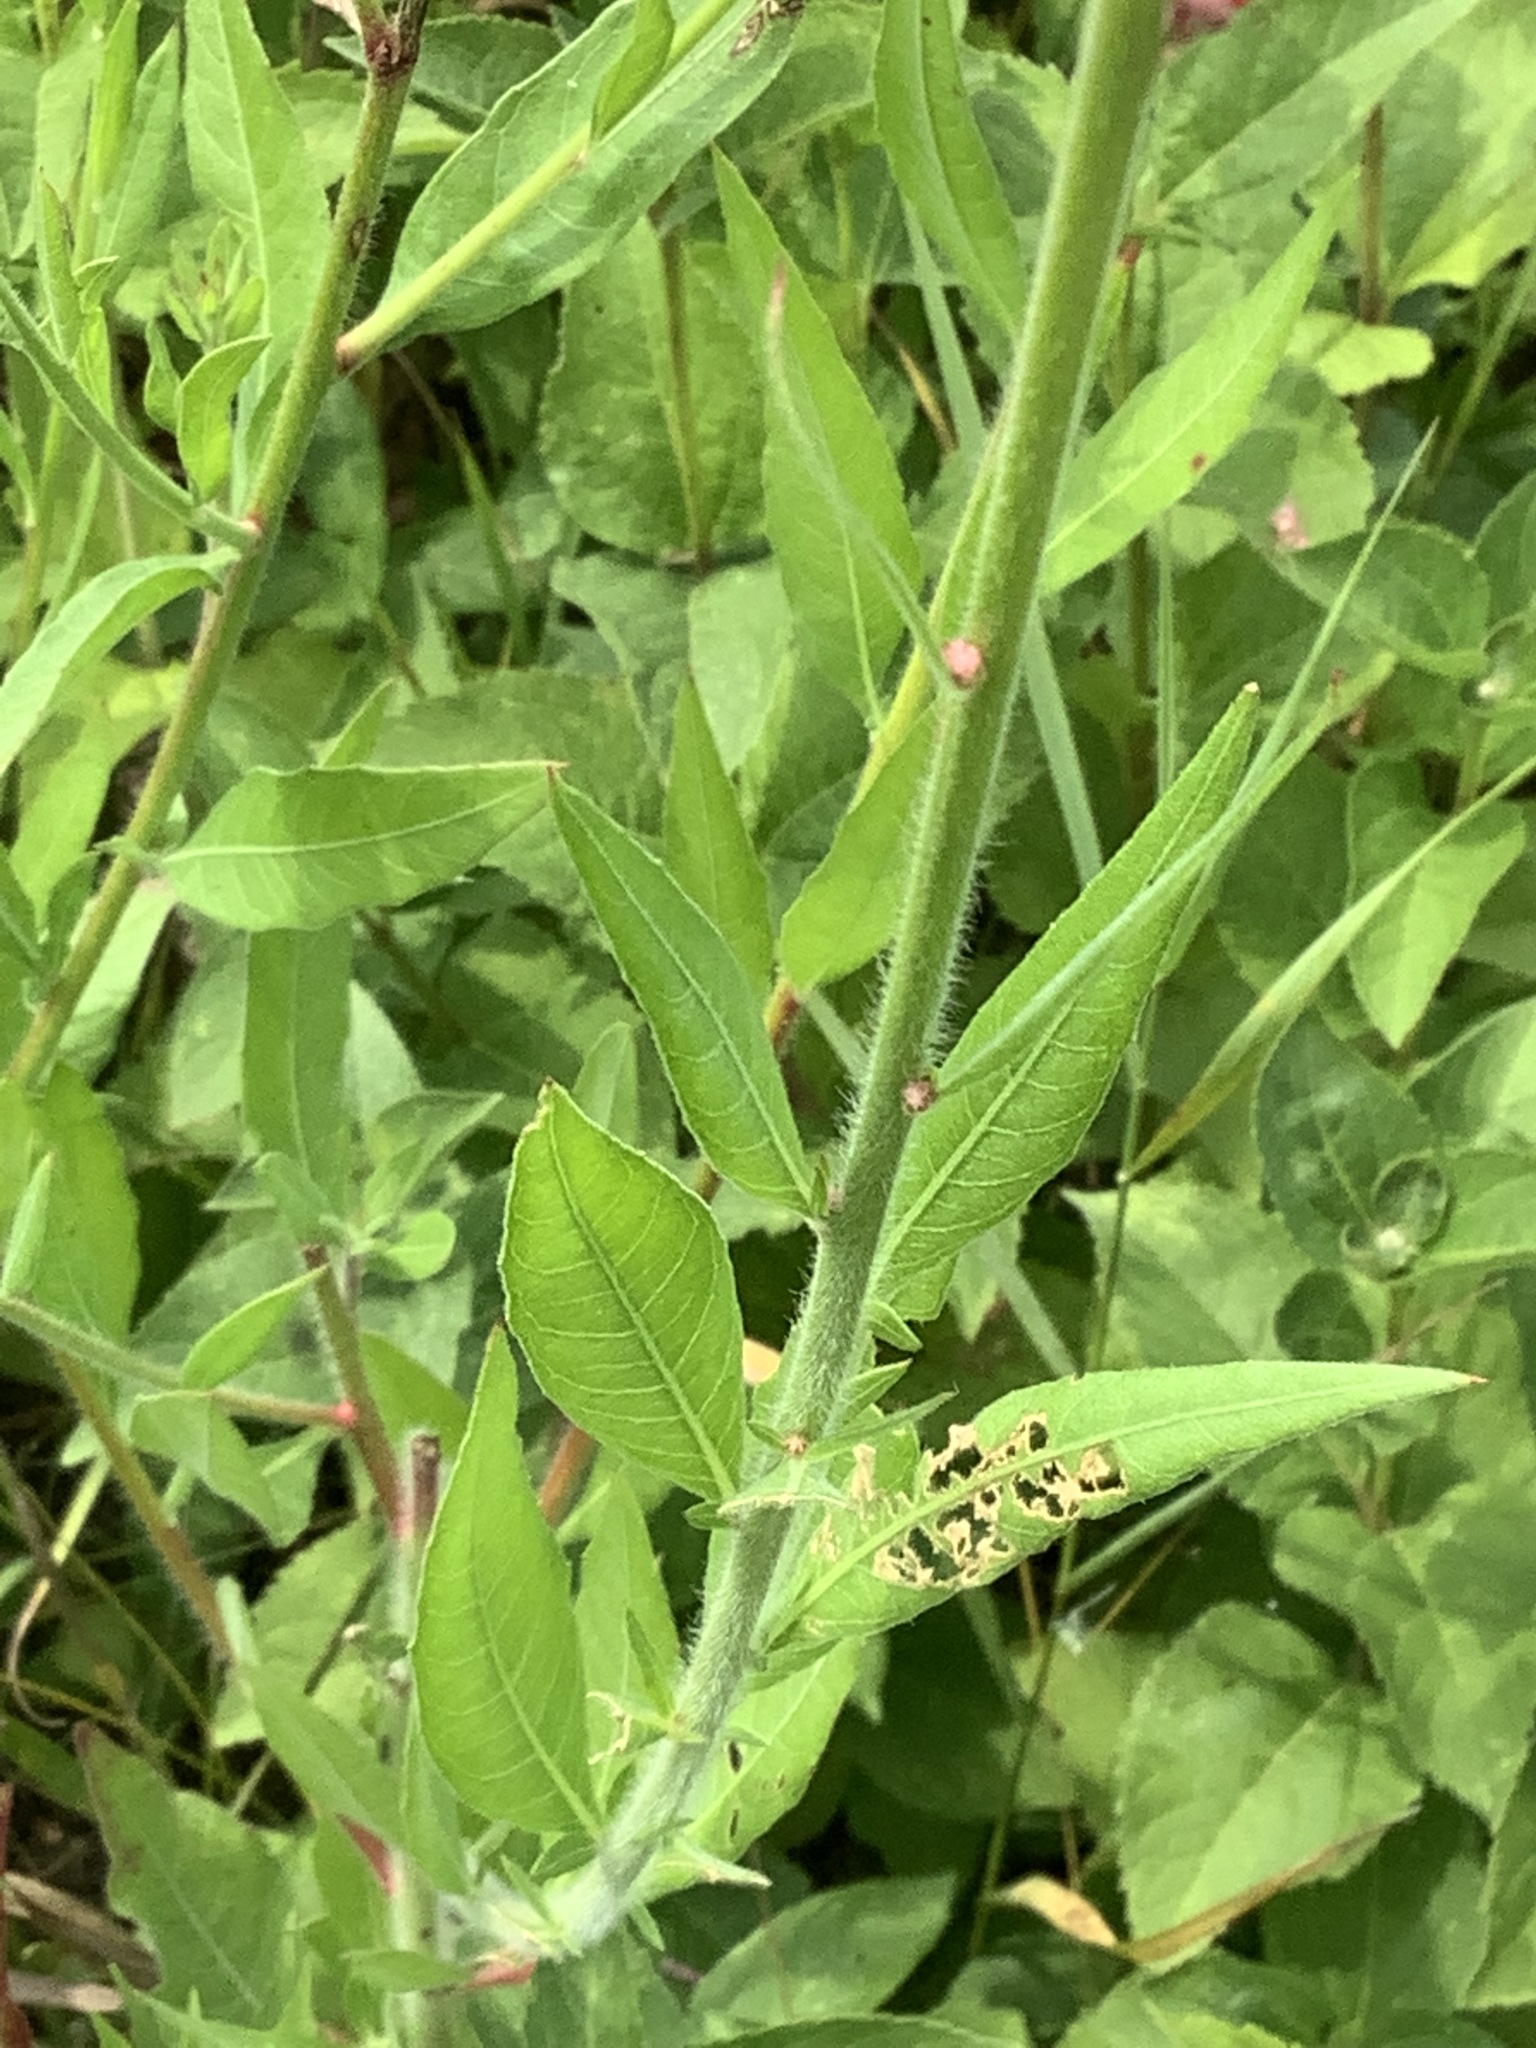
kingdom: Plantae
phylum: Tracheophyta
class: Magnoliopsida
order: Myrtales
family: Onagraceae
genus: Oenothera
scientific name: Oenothera gaura
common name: Biennial beeblossom
